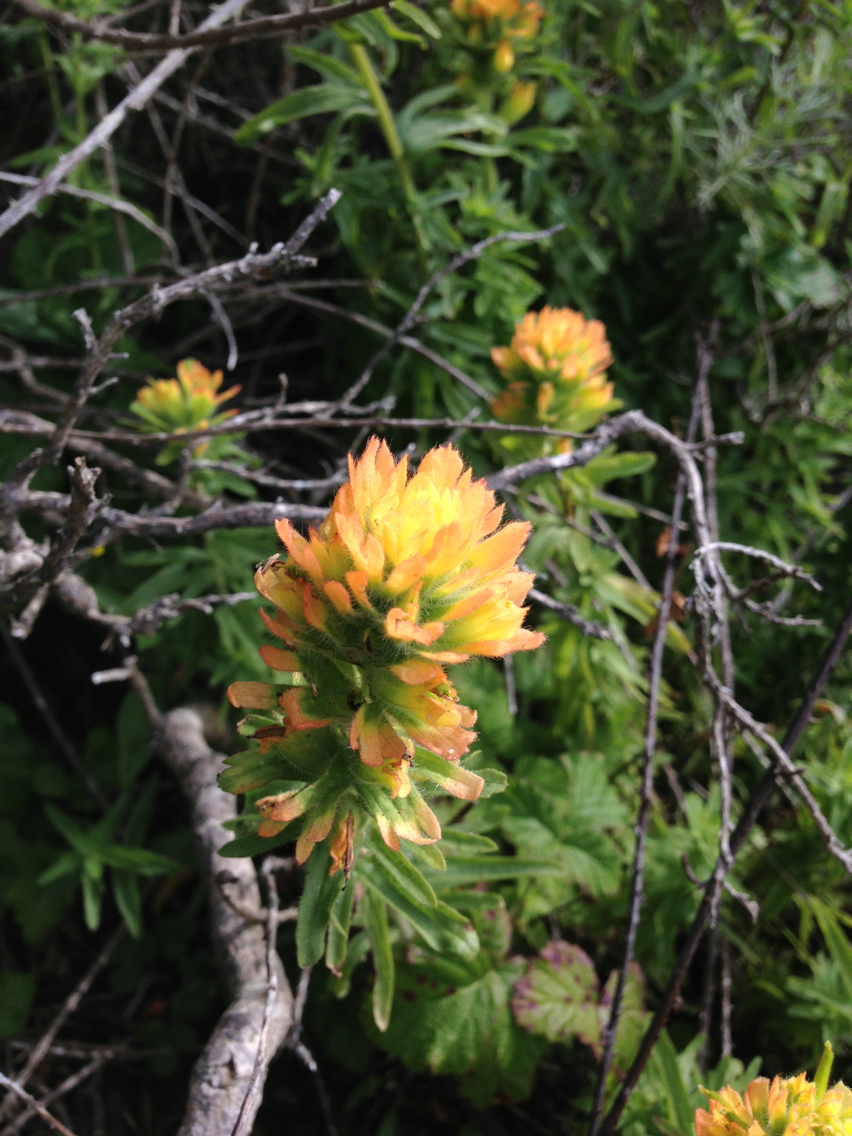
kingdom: Plantae
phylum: Tracheophyta
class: Magnoliopsida
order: Lamiales
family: Orobanchaceae
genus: Castilleja
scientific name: Castilleja wightii
